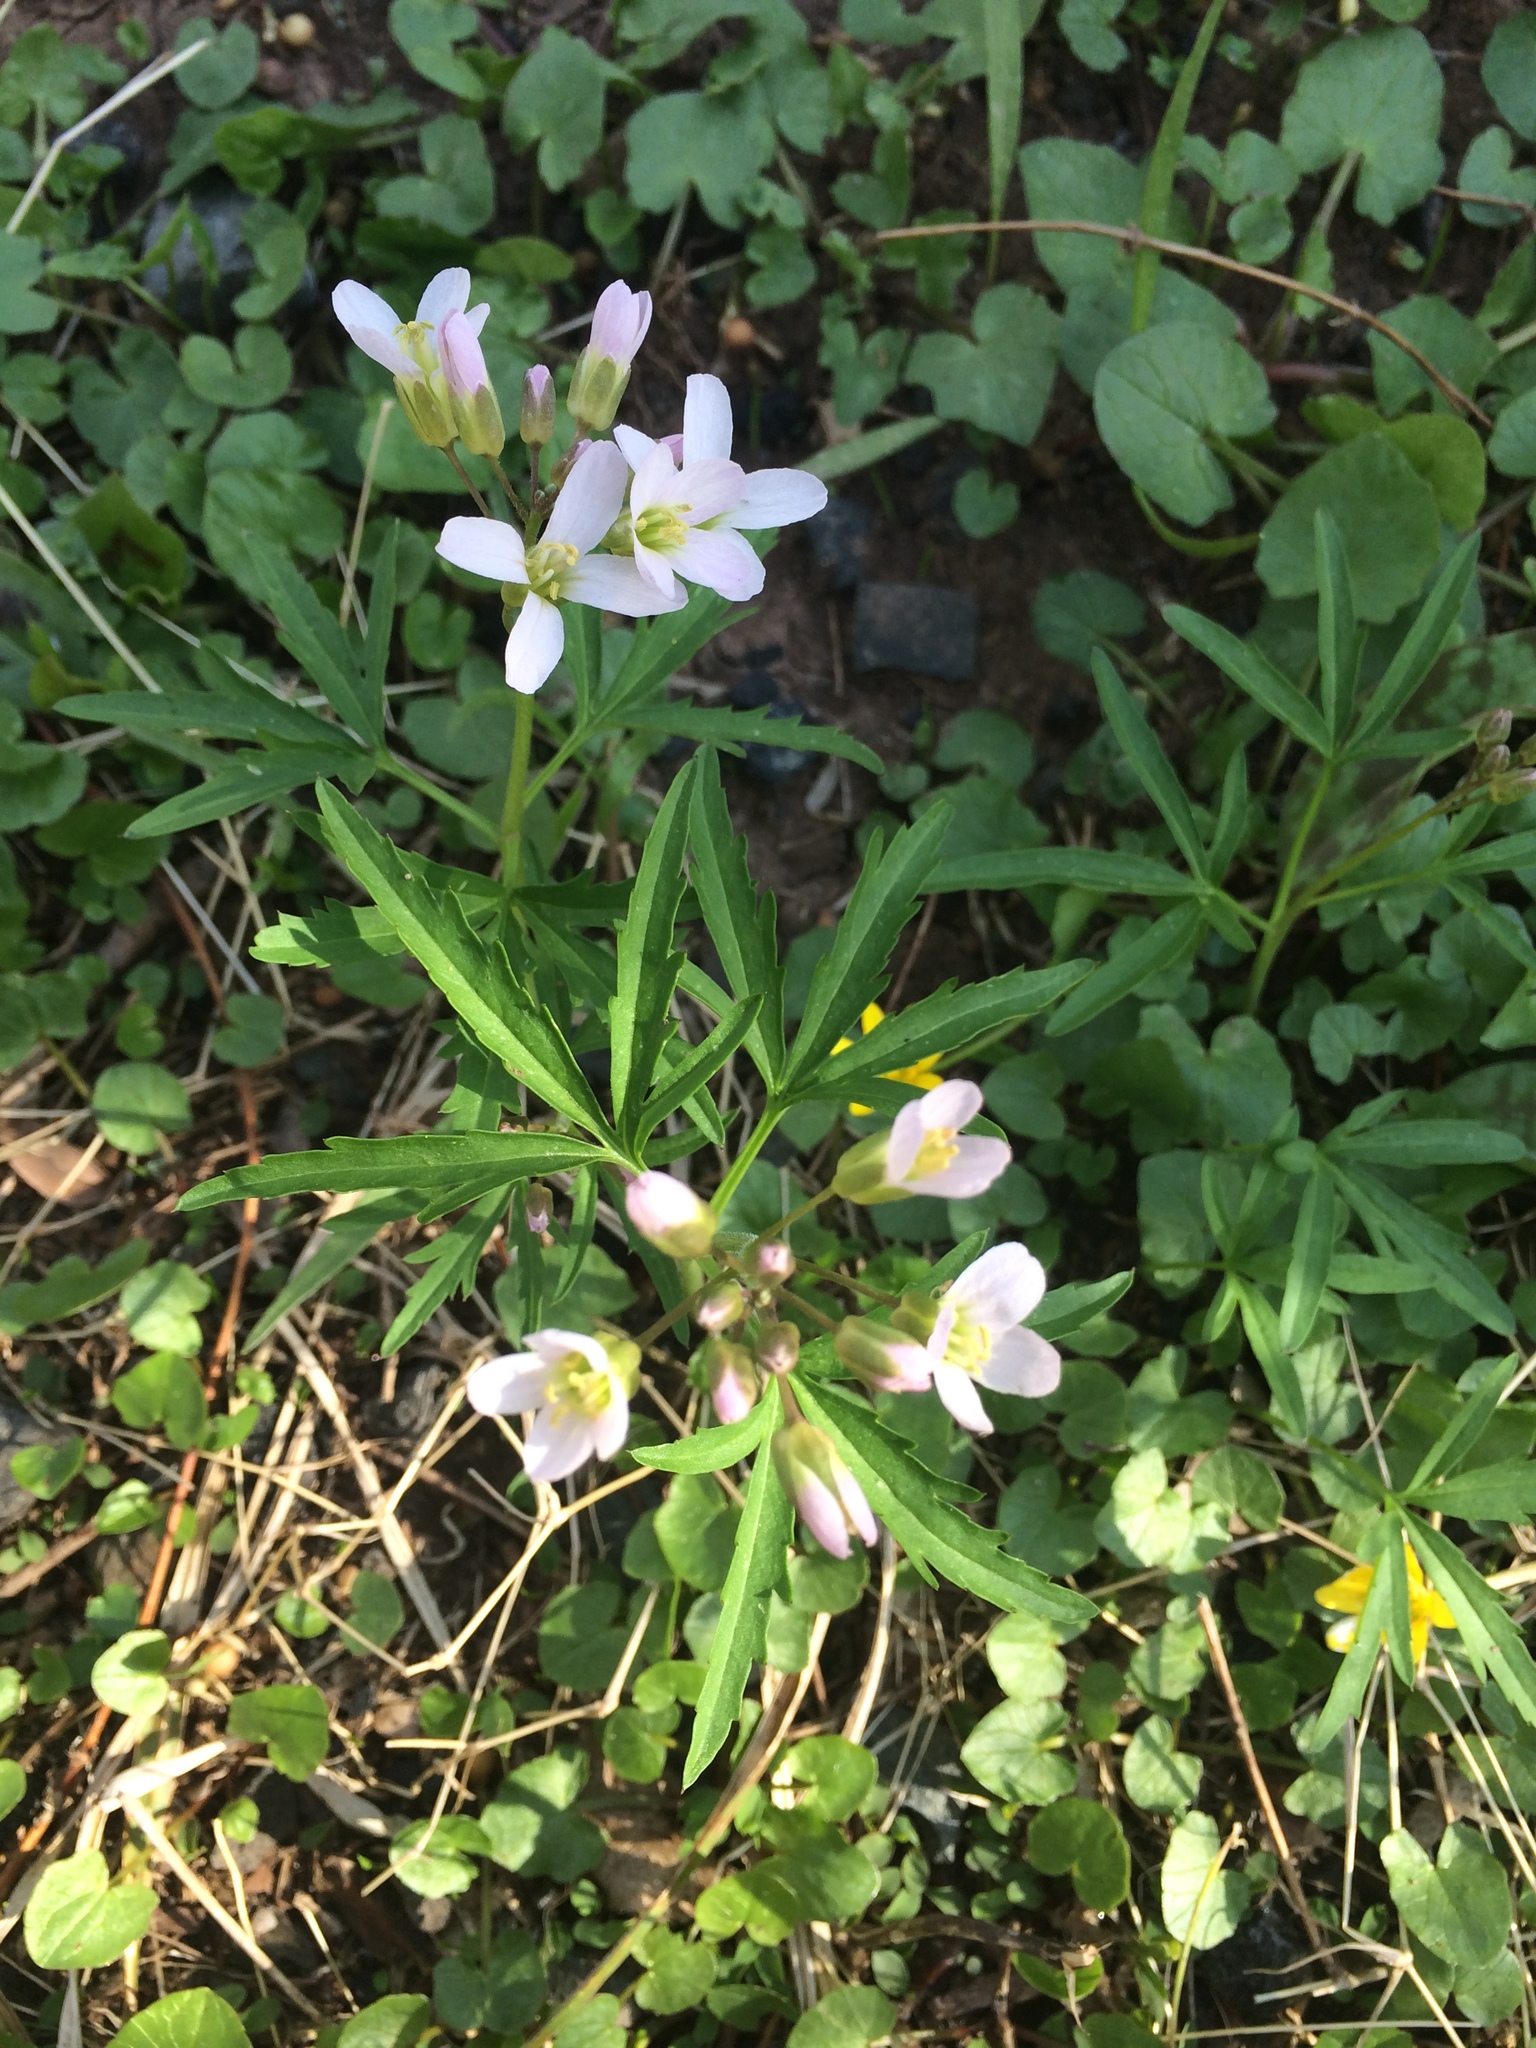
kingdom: Plantae
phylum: Tracheophyta
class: Magnoliopsida
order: Brassicales
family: Brassicaceae
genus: Cardamine
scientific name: Cardamine concatenata
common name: Cut-leaf toothcup
